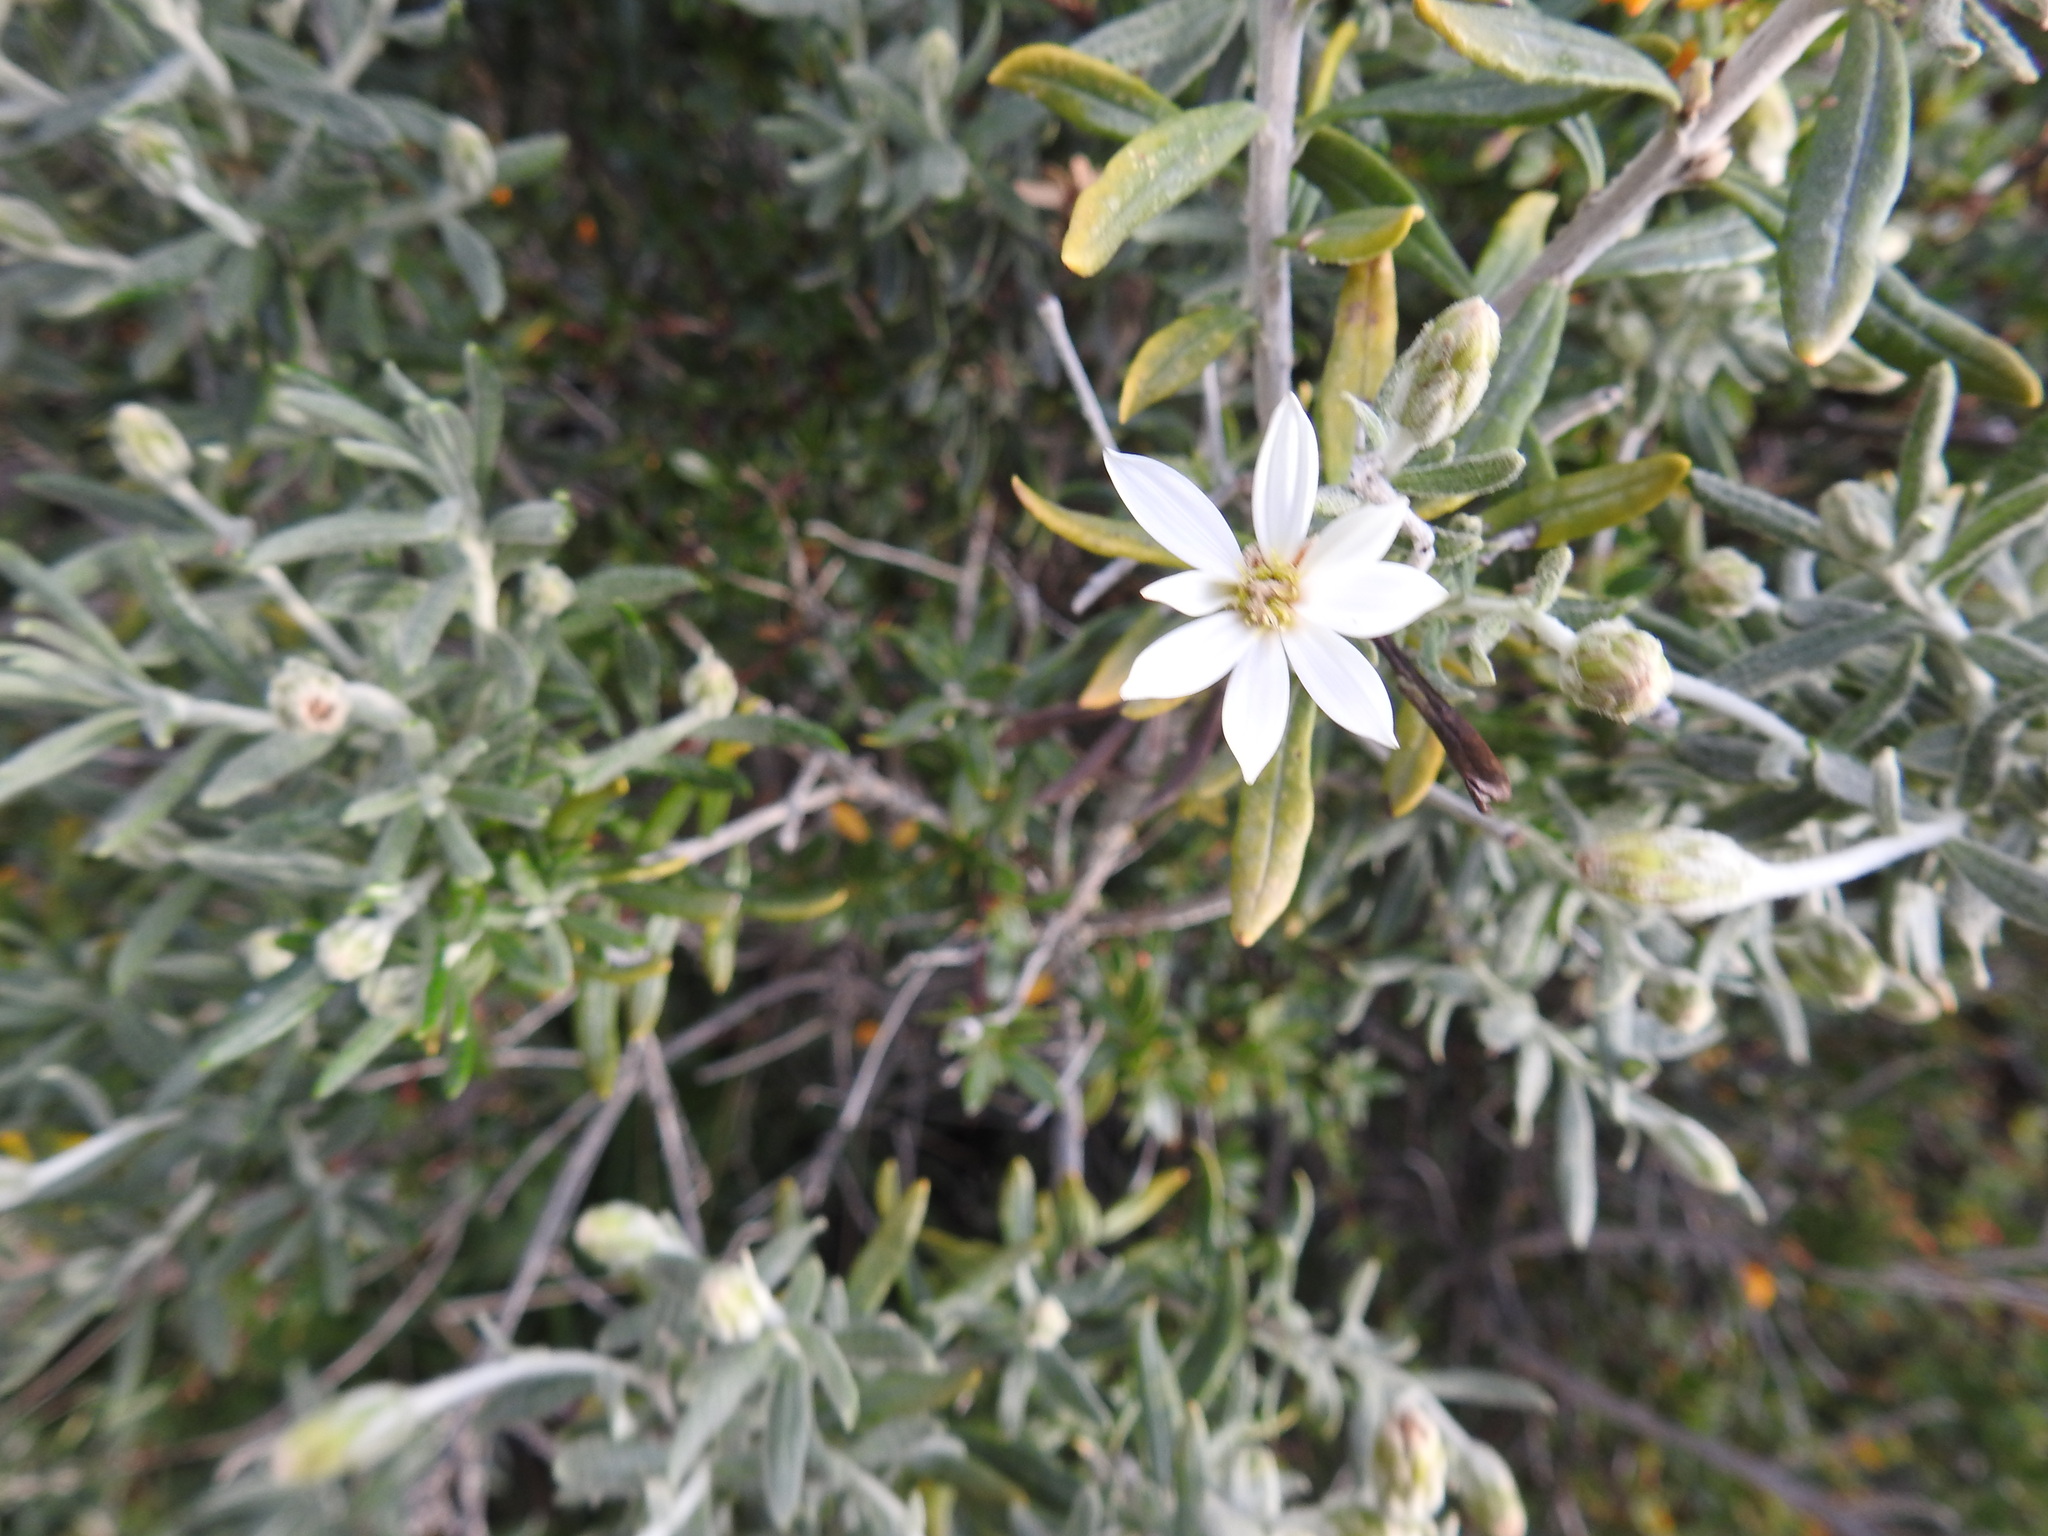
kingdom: Plantae
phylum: Tracheophyta
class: Magnoliopsida
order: Asterales
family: Asteraceae
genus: Chiliotrichum
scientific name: Chiliotrichum diffusum
